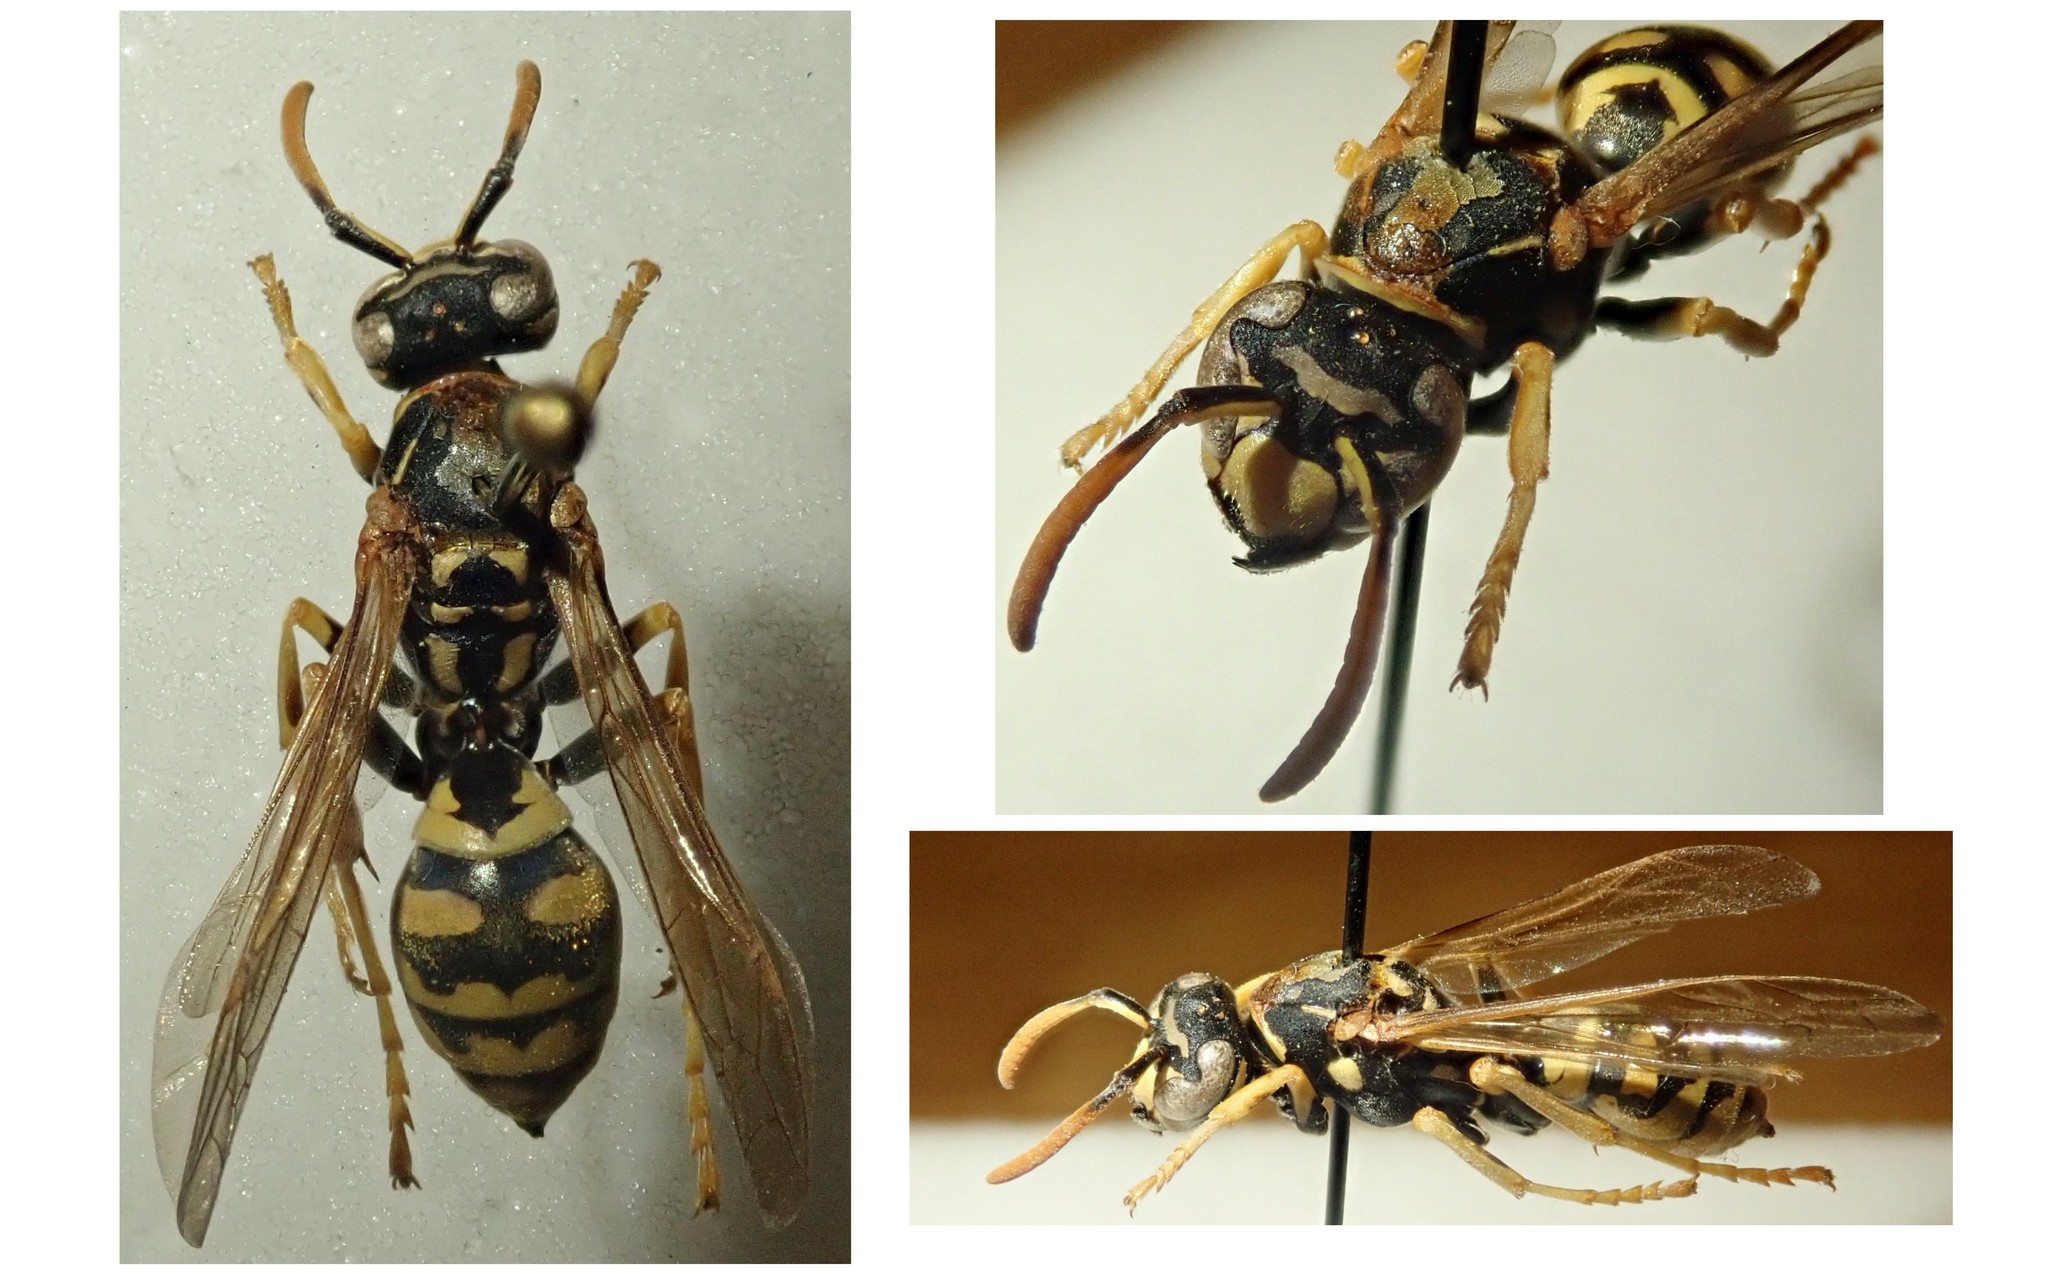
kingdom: Animalia
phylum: Arthropoda
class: Insecta
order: Hymenoptera
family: Eumenidae
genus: Polistes
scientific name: Polistes dominula
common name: Paper wasp
